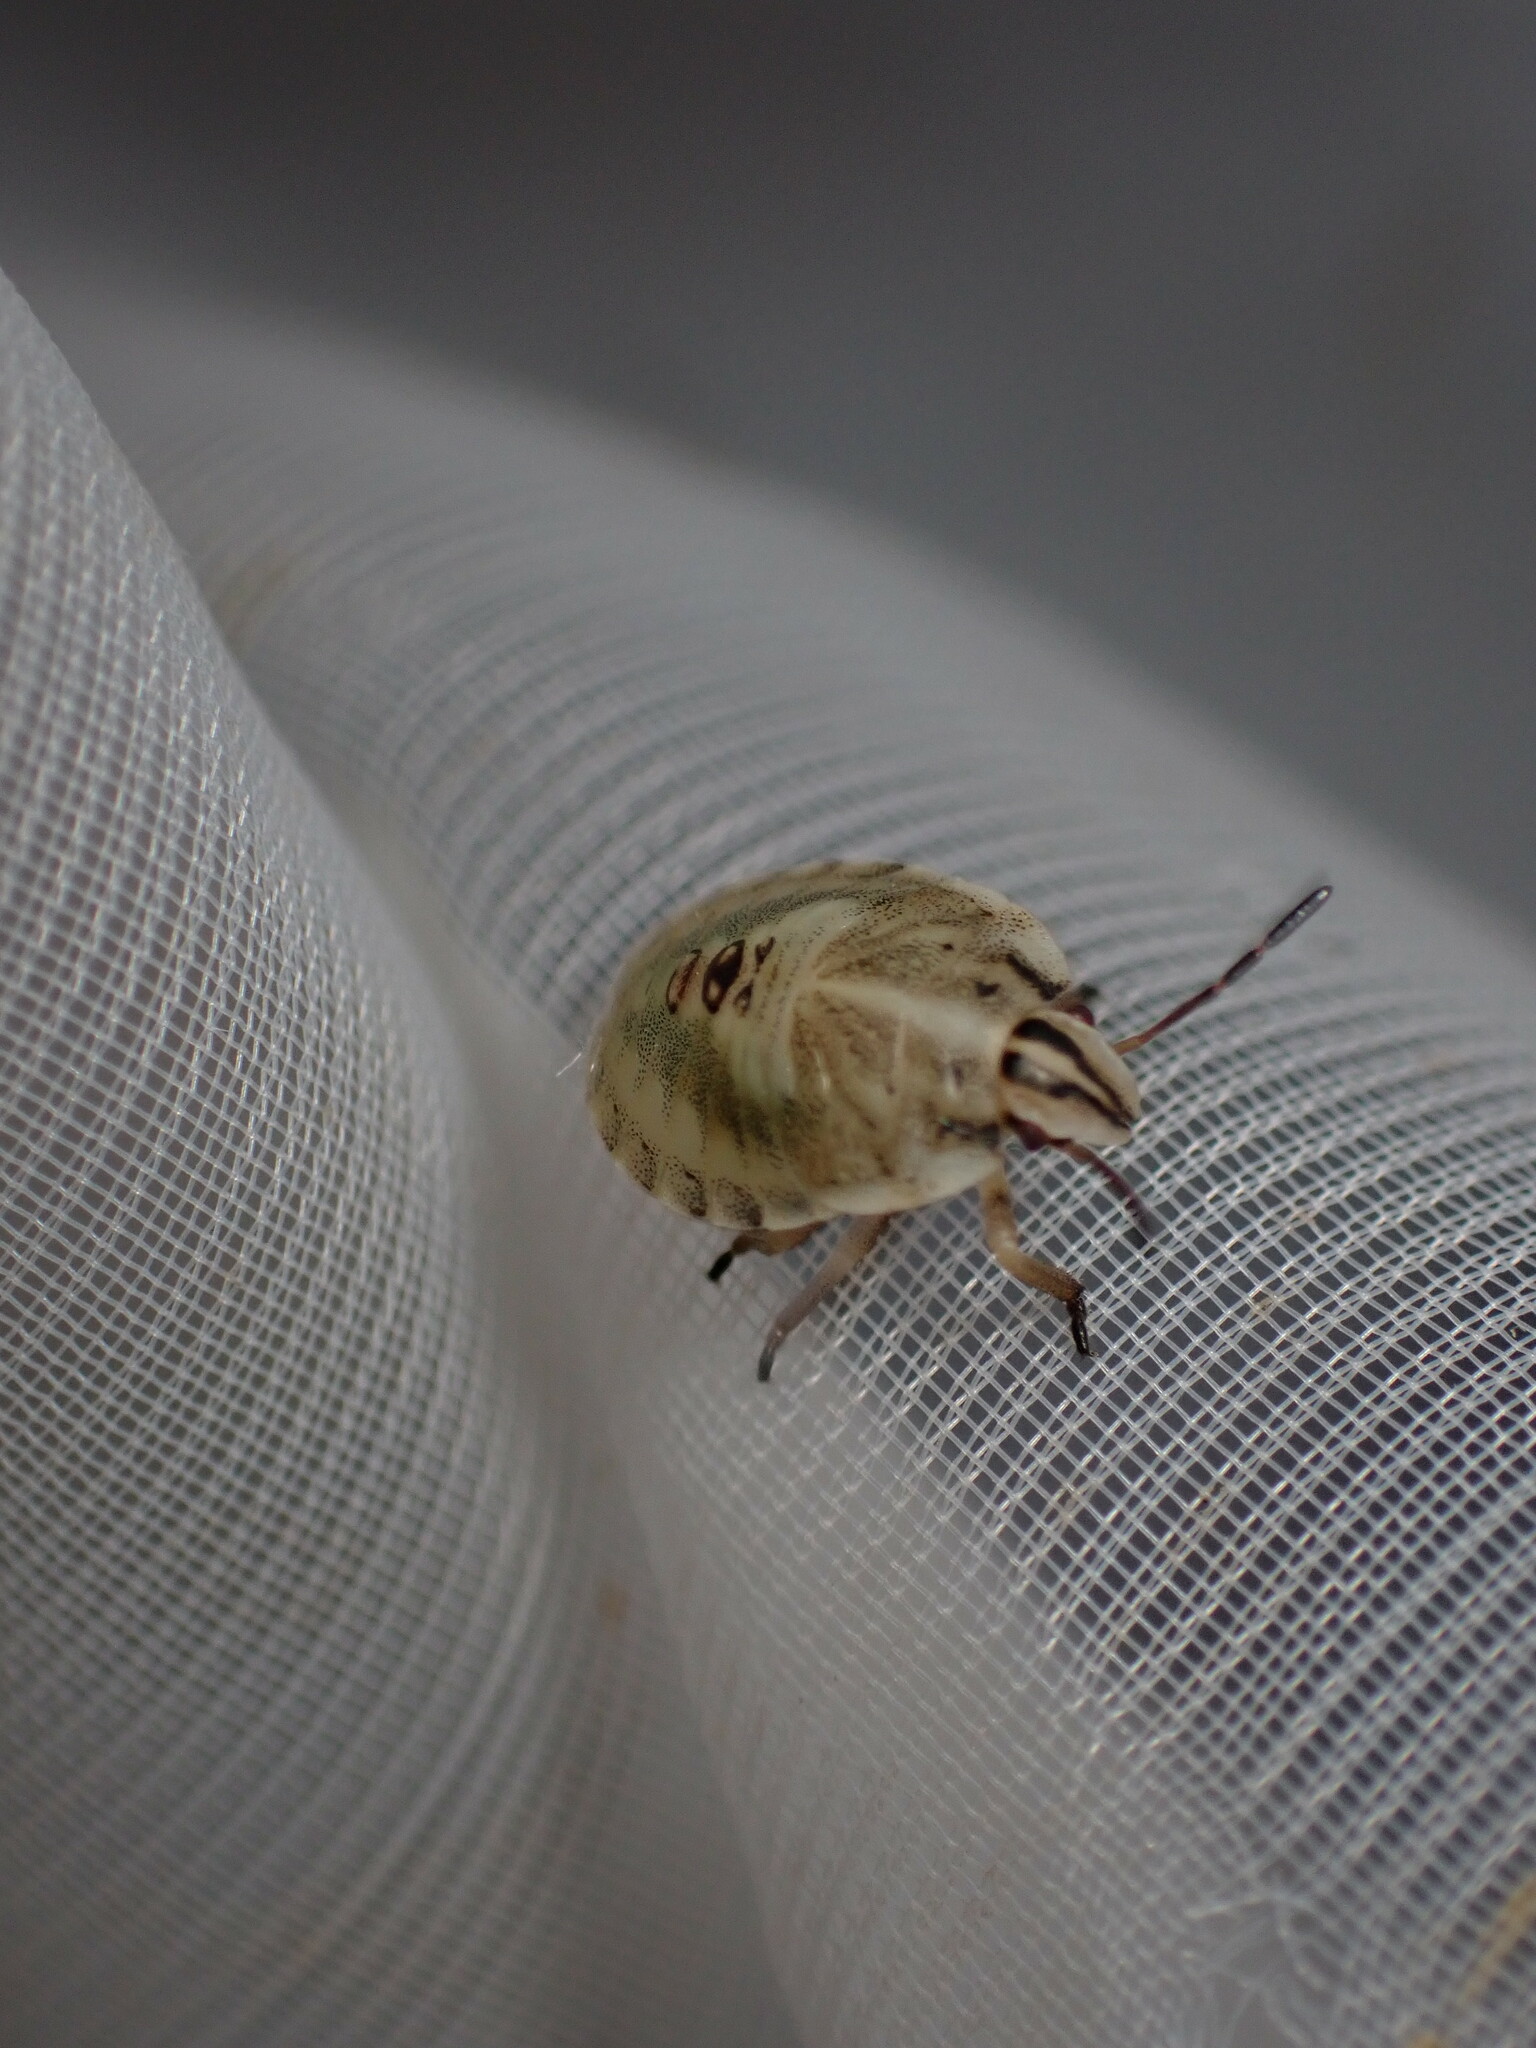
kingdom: Animalia
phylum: Arthropoda
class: Insecta
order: Hemiptera
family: Pentatomidae
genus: Graphosoma
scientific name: Graphosoma italicum
